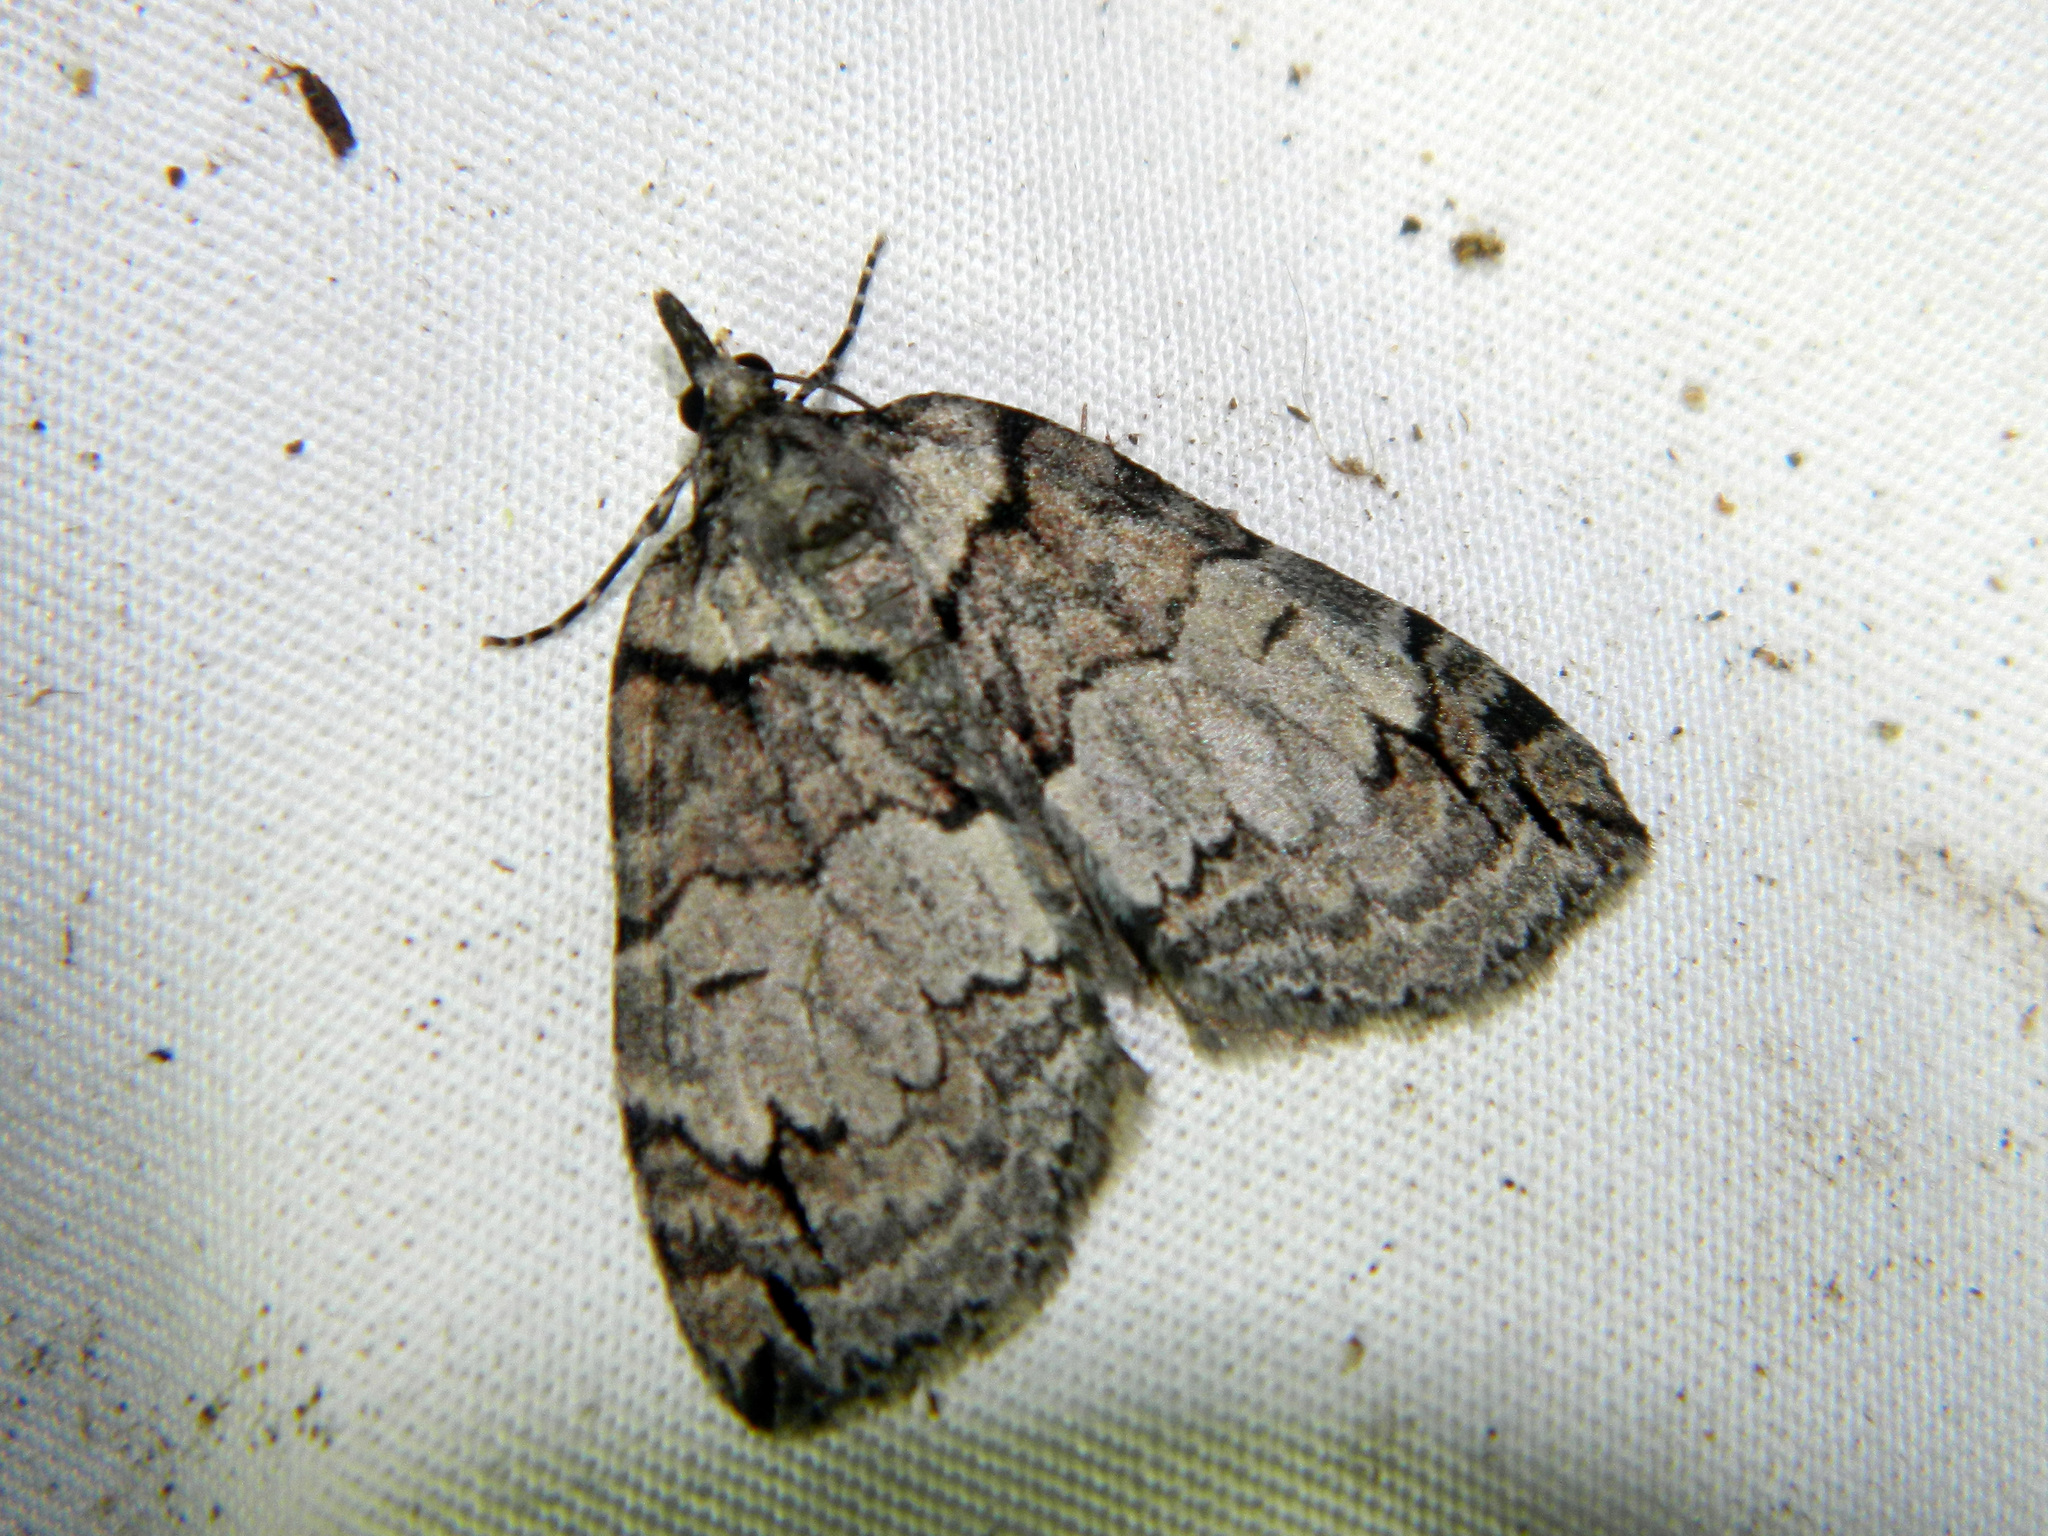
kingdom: Animalia
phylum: Arthropoda
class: Insecta
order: Lepidoptera
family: Geometridae
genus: Hydriomena
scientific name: Hydriomena ruberata
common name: Ruddy highflyer
